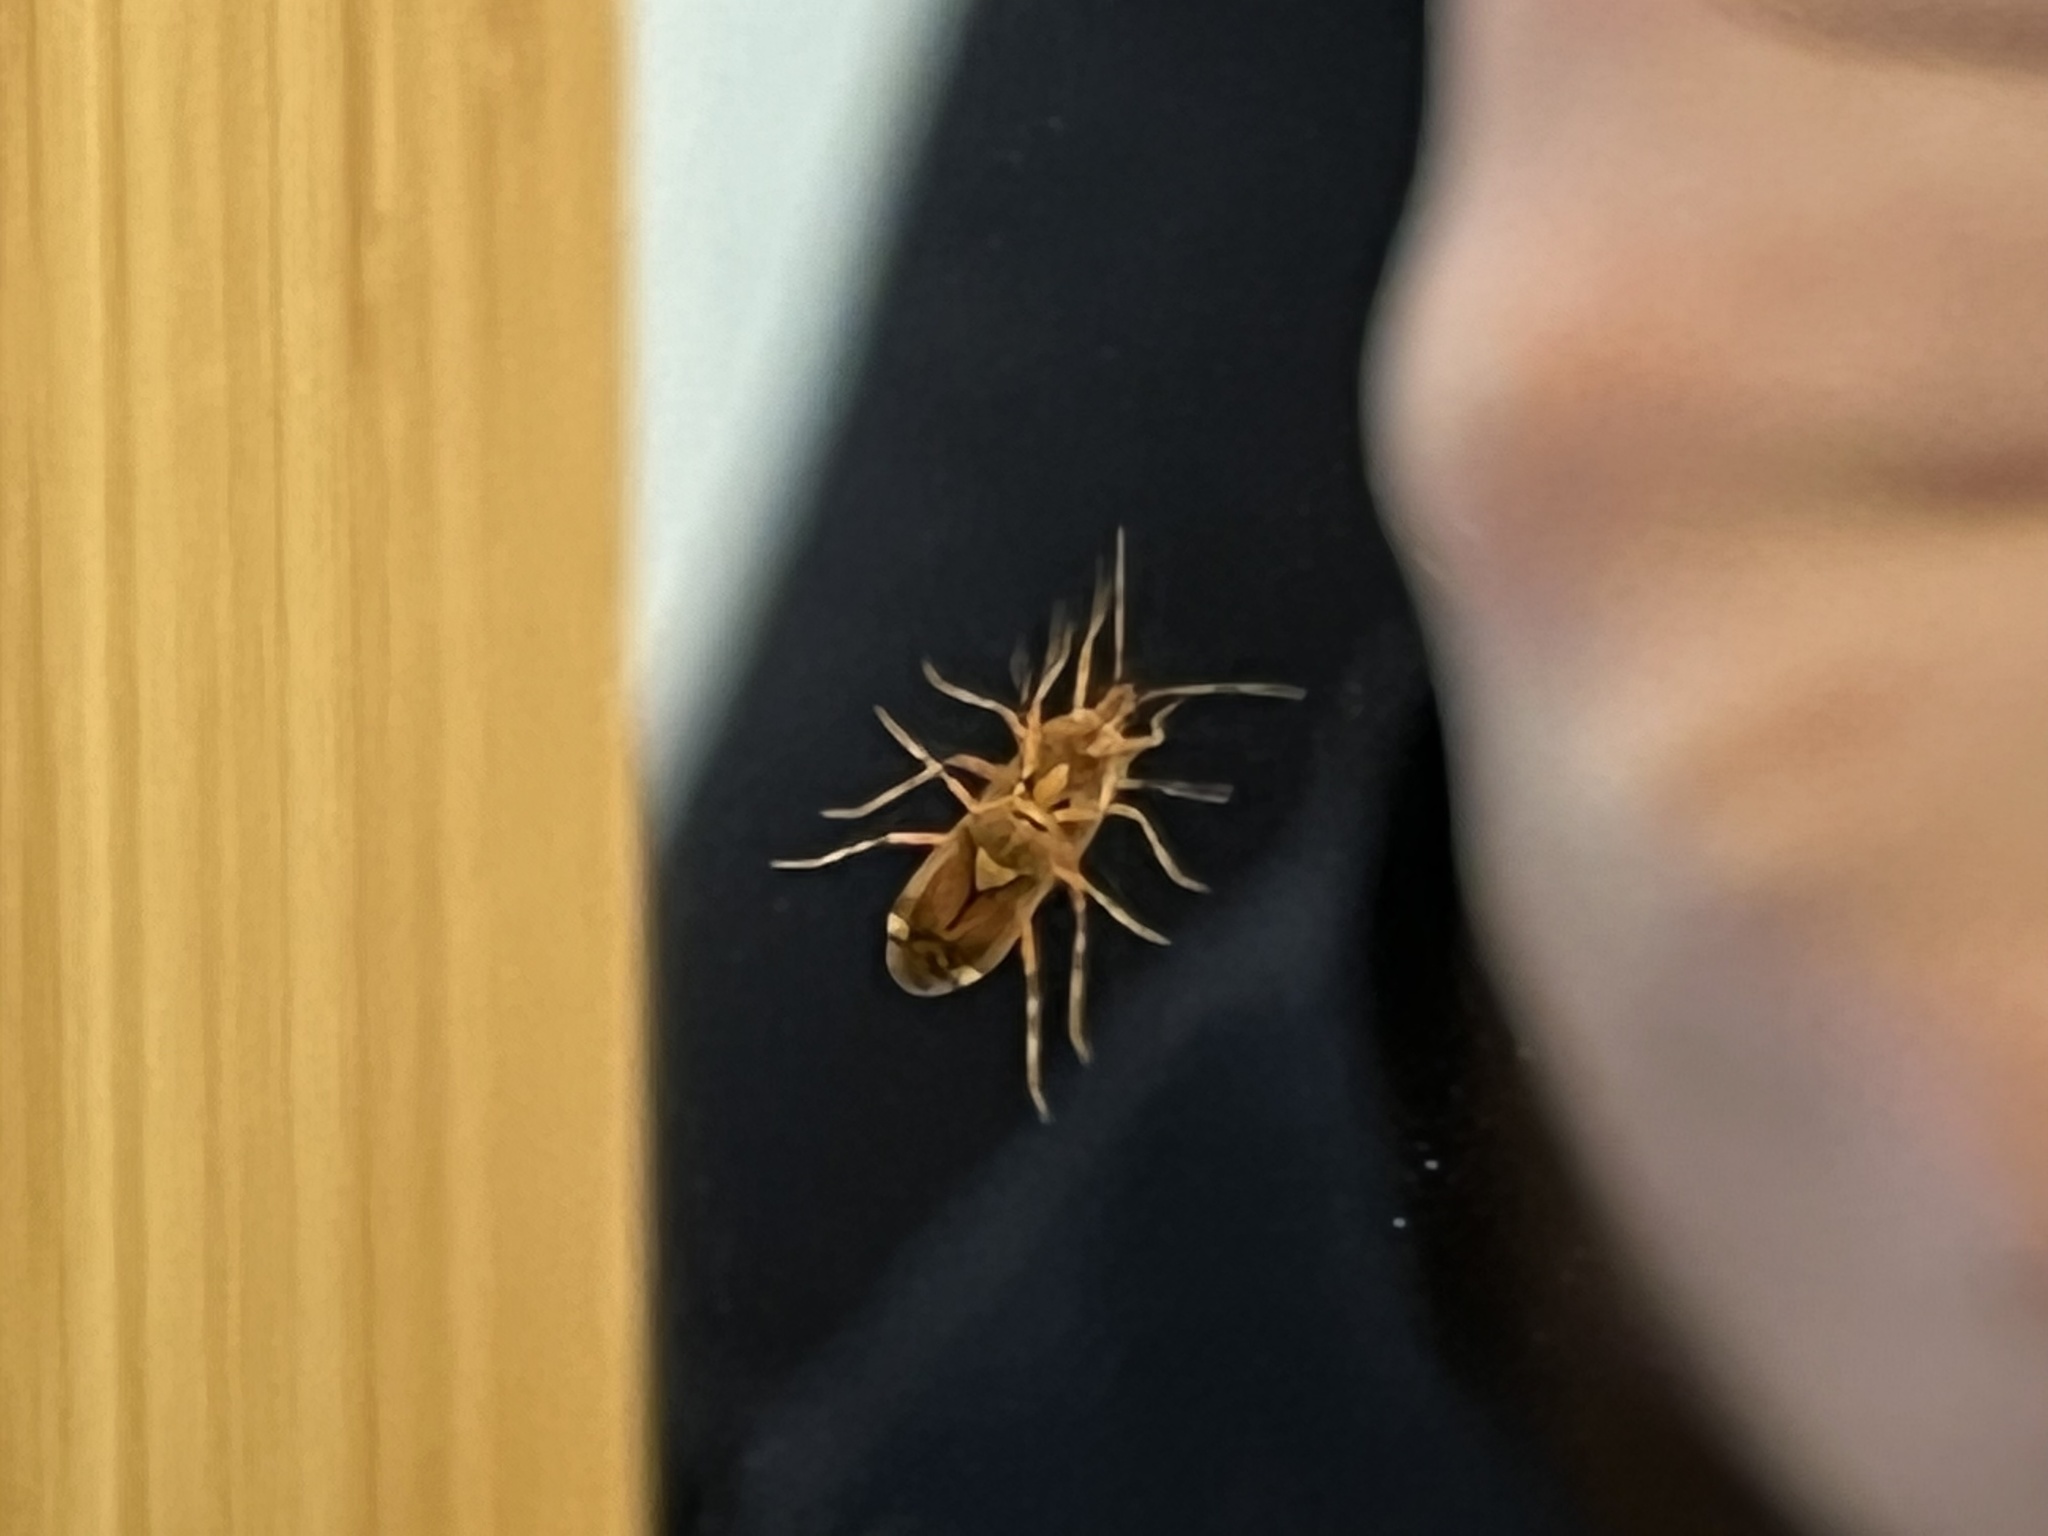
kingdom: Animalia
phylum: Arthropoda
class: Insecta
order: Hemiptera
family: Miridae
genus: Deraeocoris
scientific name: Deraeocoris flavilinea
